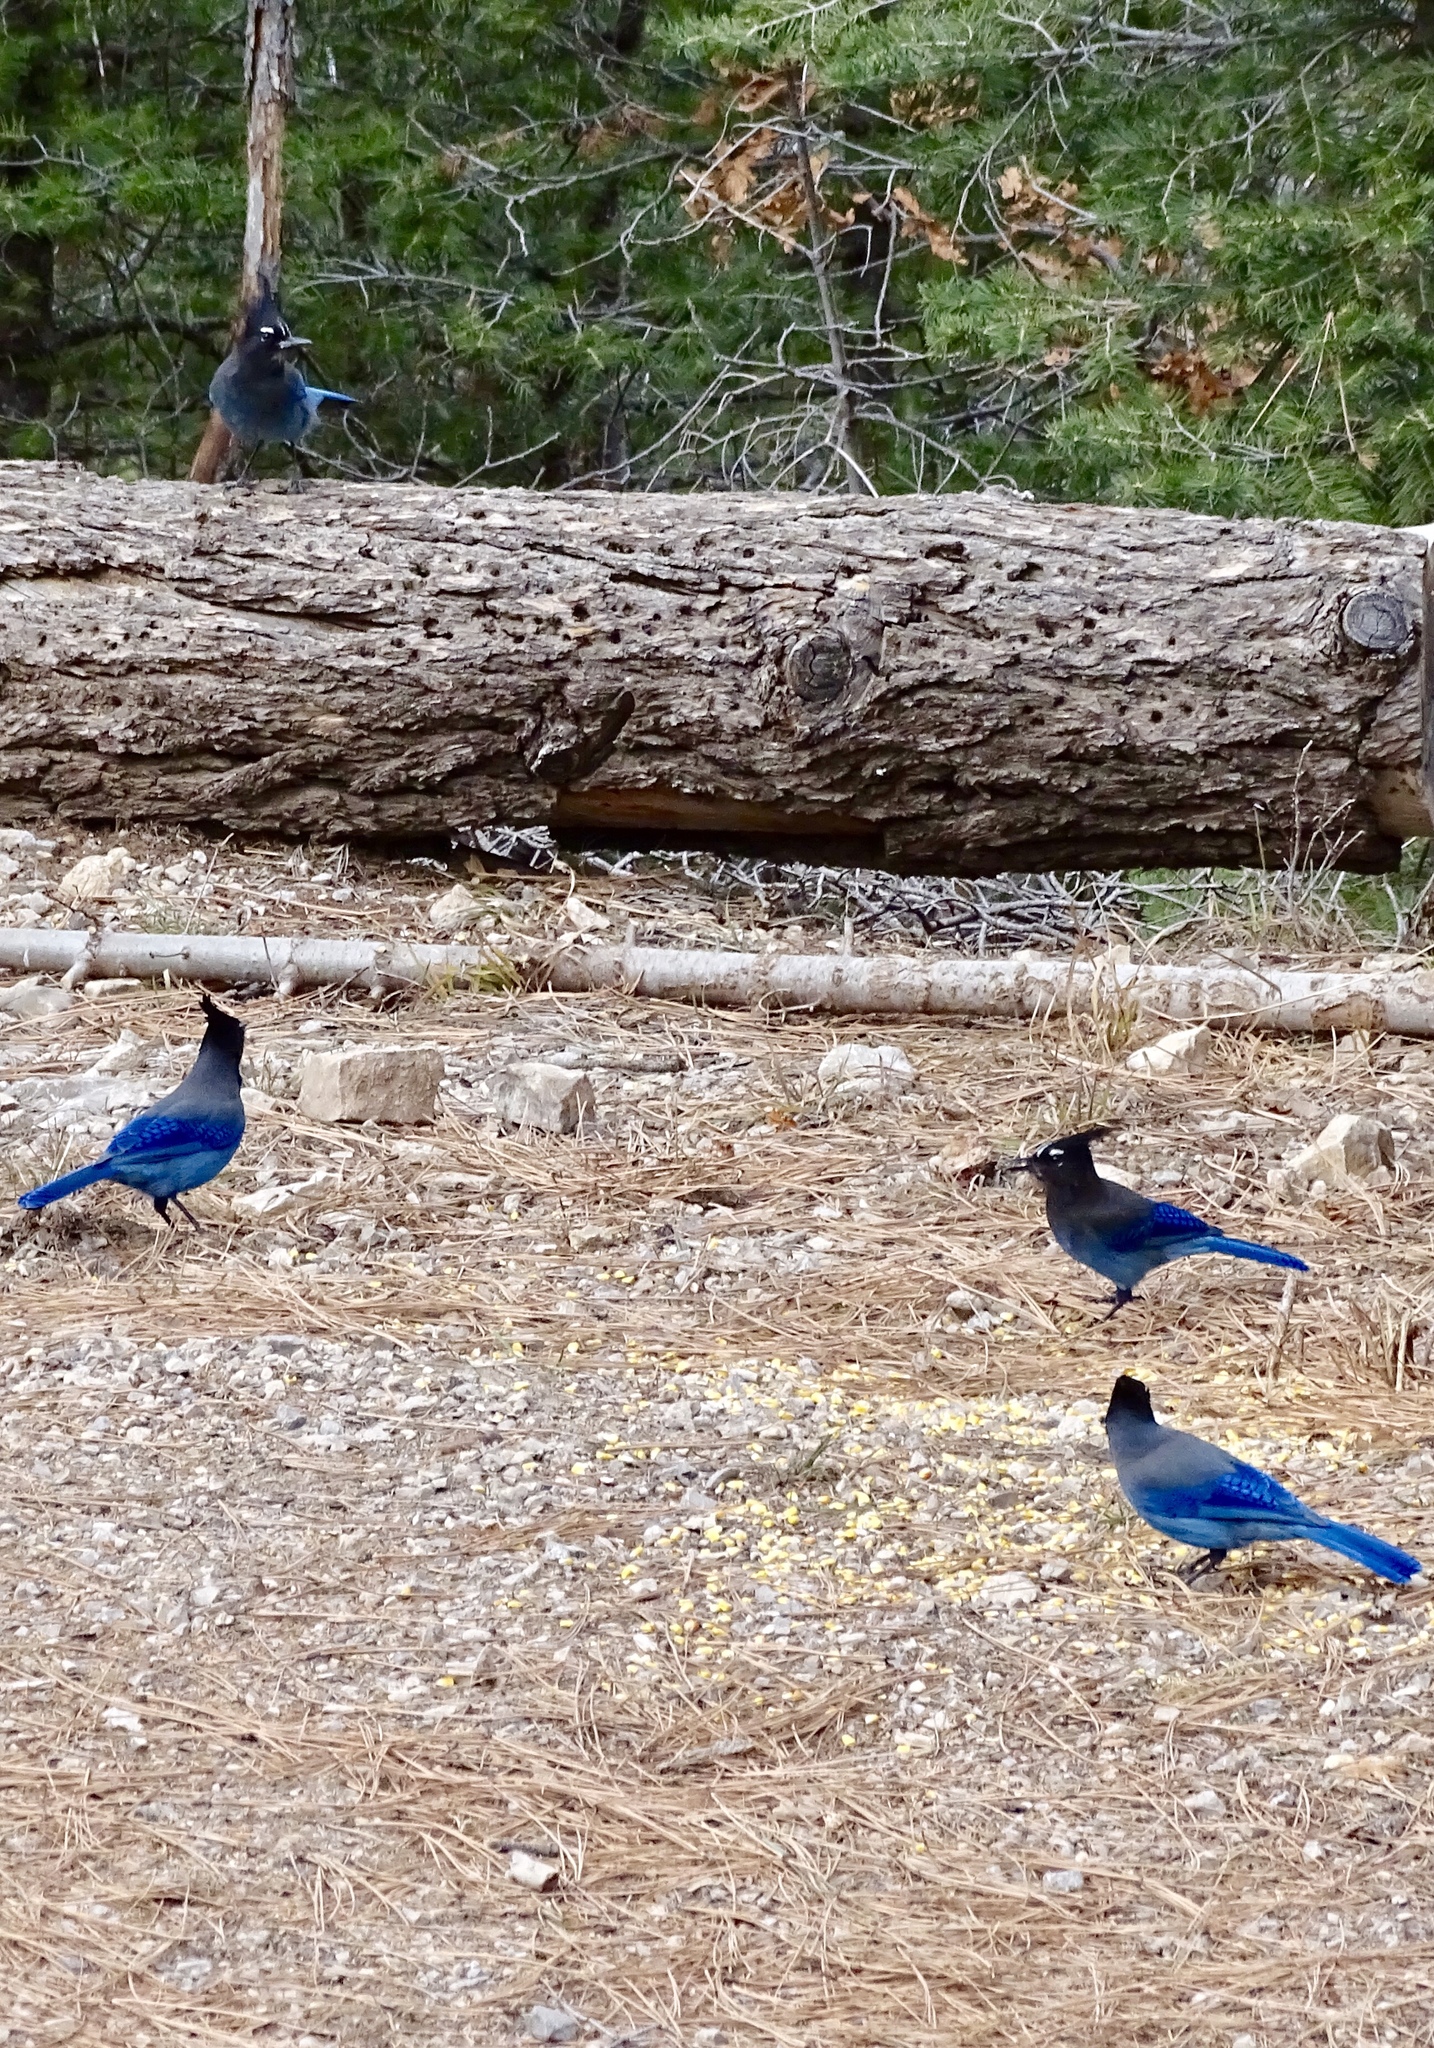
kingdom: Animalia
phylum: Chordata
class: Aves
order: Passeriformes
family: Corvidae
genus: Cyanocitta
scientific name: Cyanocitta stelleri
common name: Steller's jay
